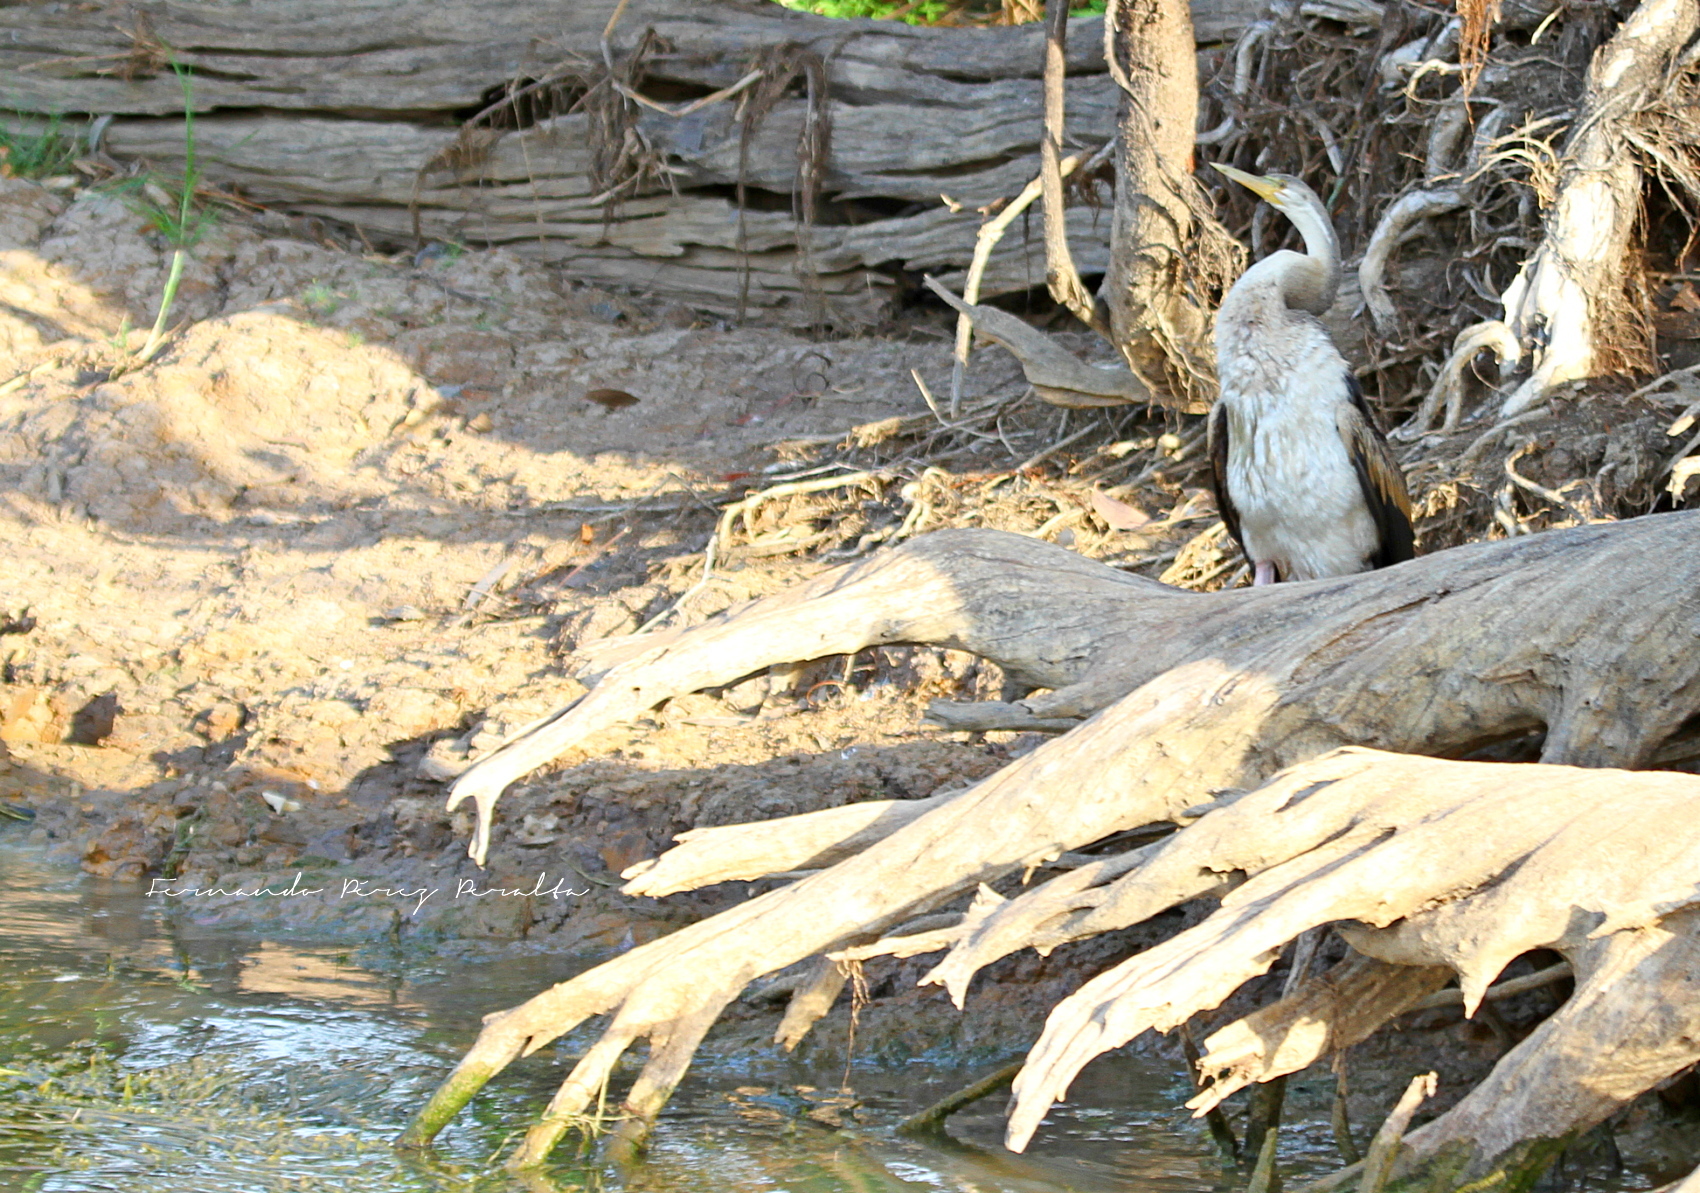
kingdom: Animalia
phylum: Chordata
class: Aves
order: Suliformes
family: Anhingidae
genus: Anhinga
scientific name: Anhinga novaehollandiae
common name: Australasian darter
